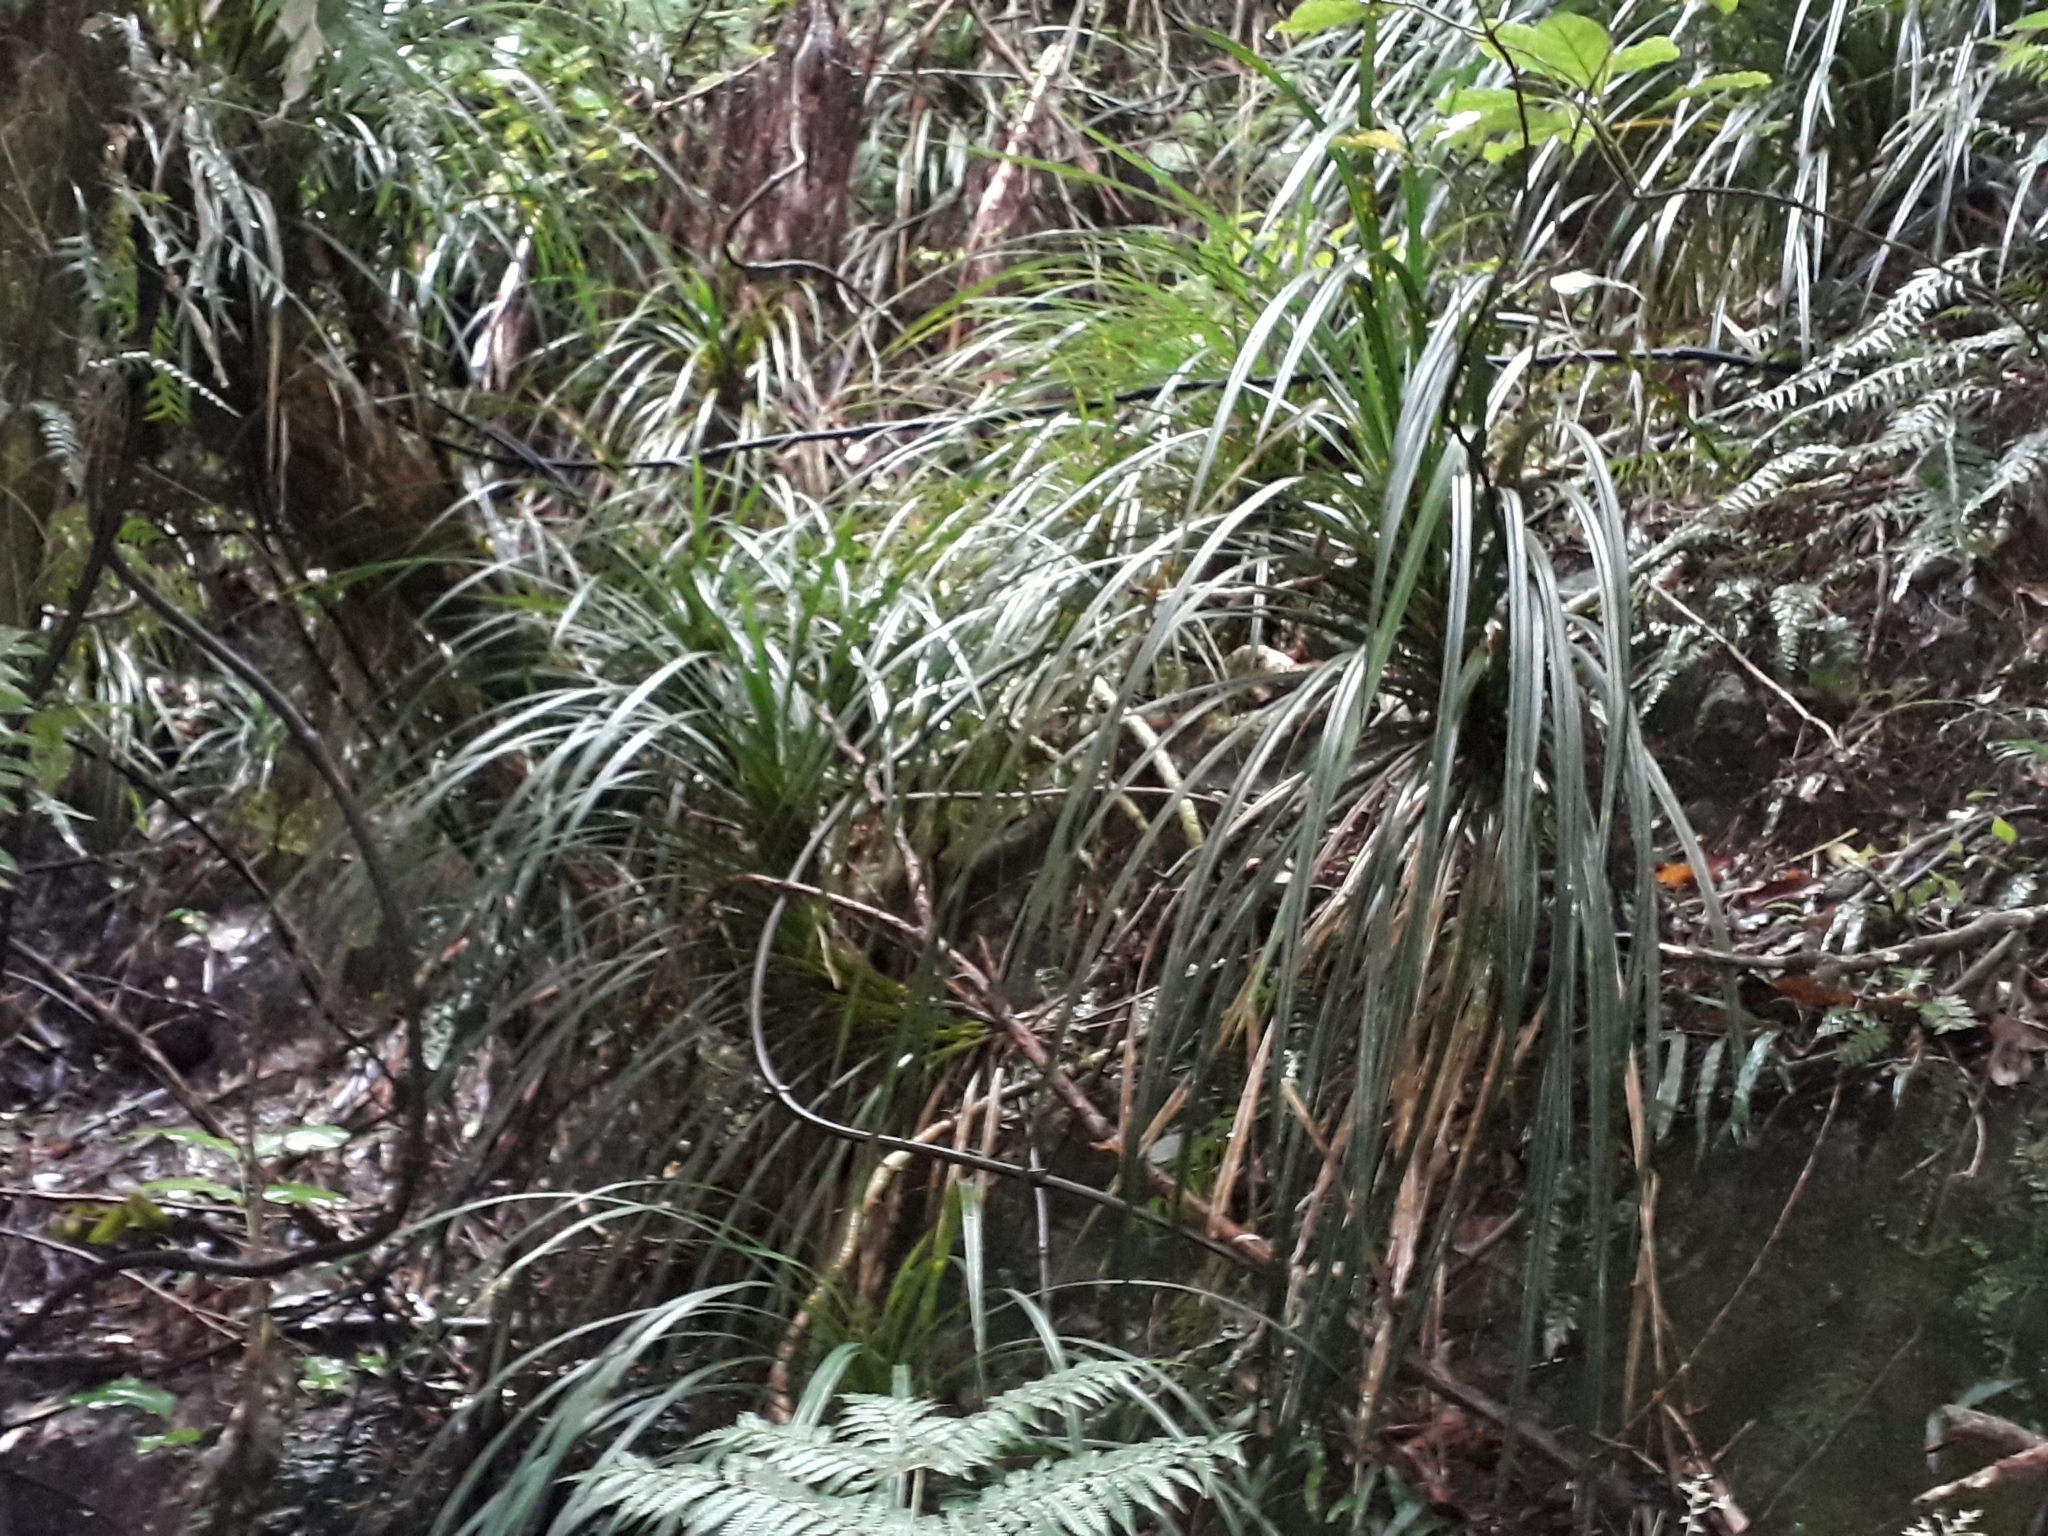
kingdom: Plantae
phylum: Tracheophyta
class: Liliopsida
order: Pandanales
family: Pandanaceae
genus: Freycinetia
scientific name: Freycinetia banksii
